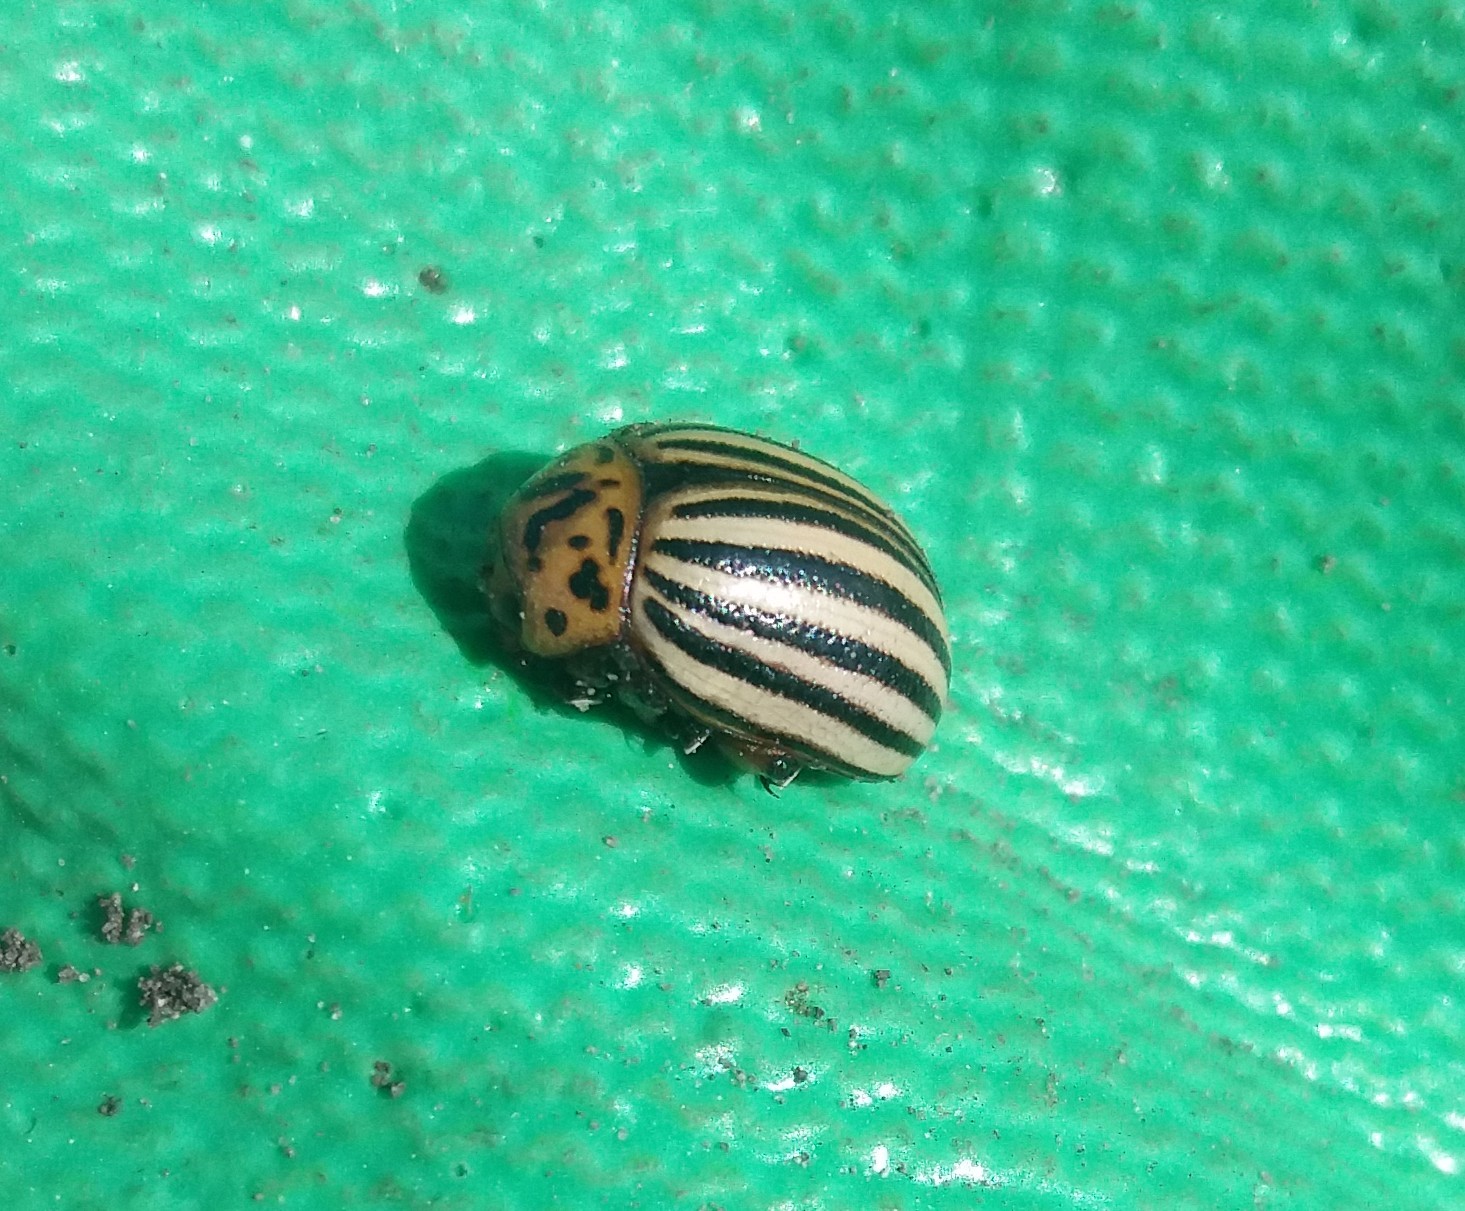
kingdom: Animalia
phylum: Arthropoda
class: Insecta
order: Coleoptera
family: Chrysomelidae
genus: Leptinotarsa
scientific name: Leptinotarsa decemlineata
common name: Colorado potato beetle
